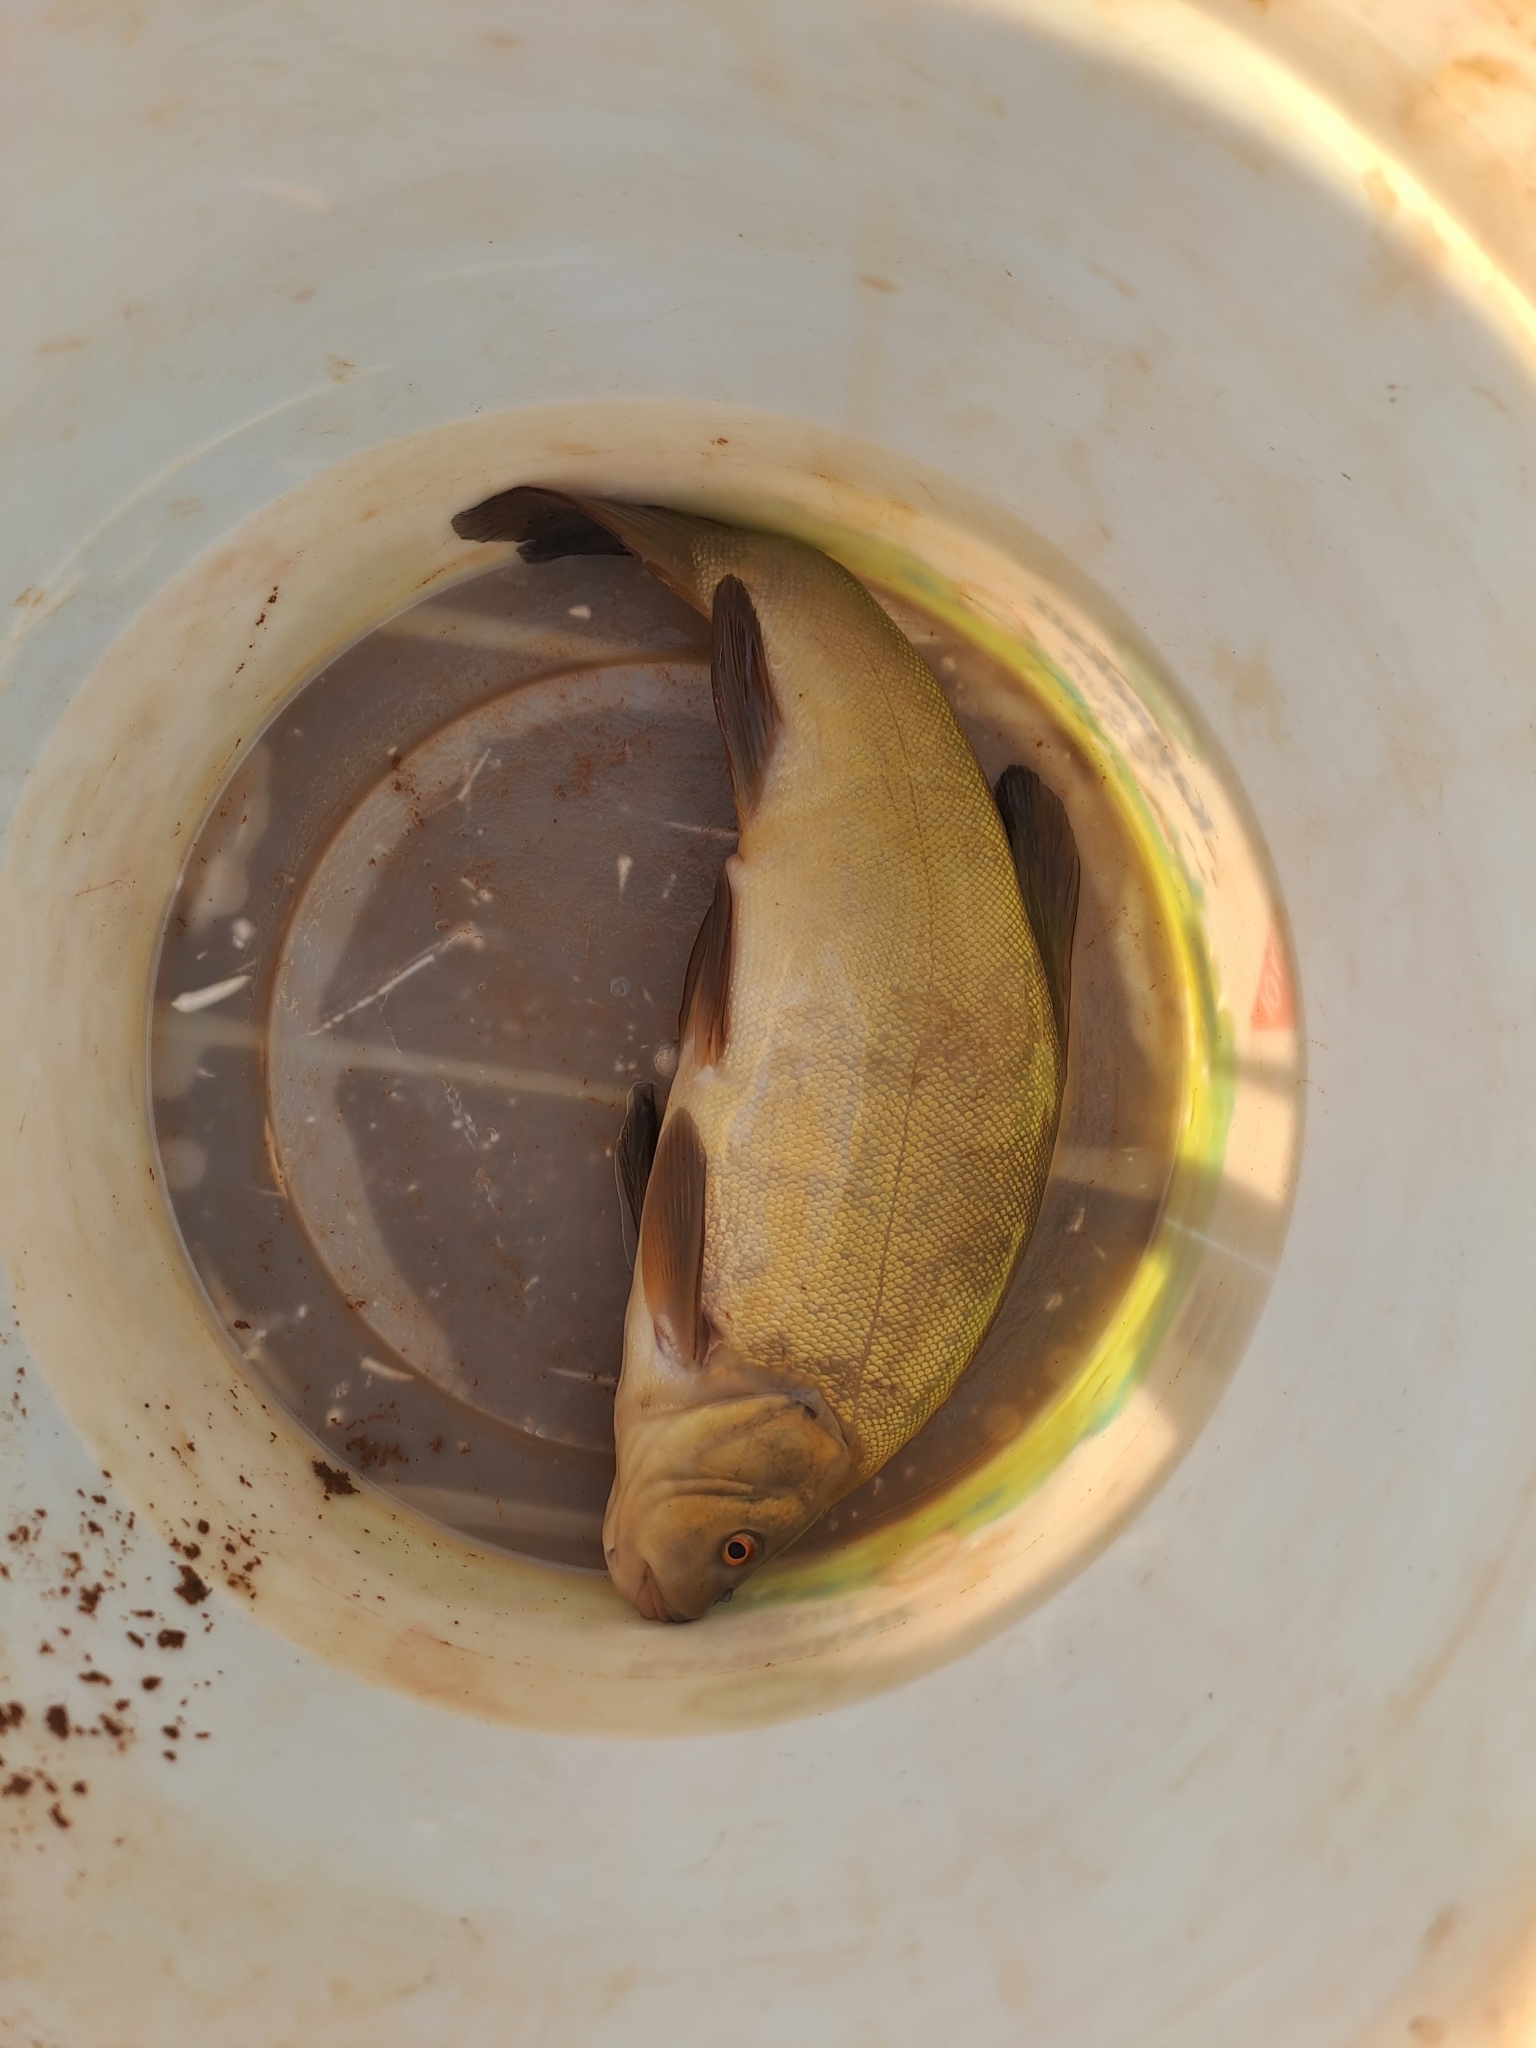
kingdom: Animalia
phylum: Chordata
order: Cypriniformes
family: Cyprinidae
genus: Tinca
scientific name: Tinca tinca
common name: Tench
